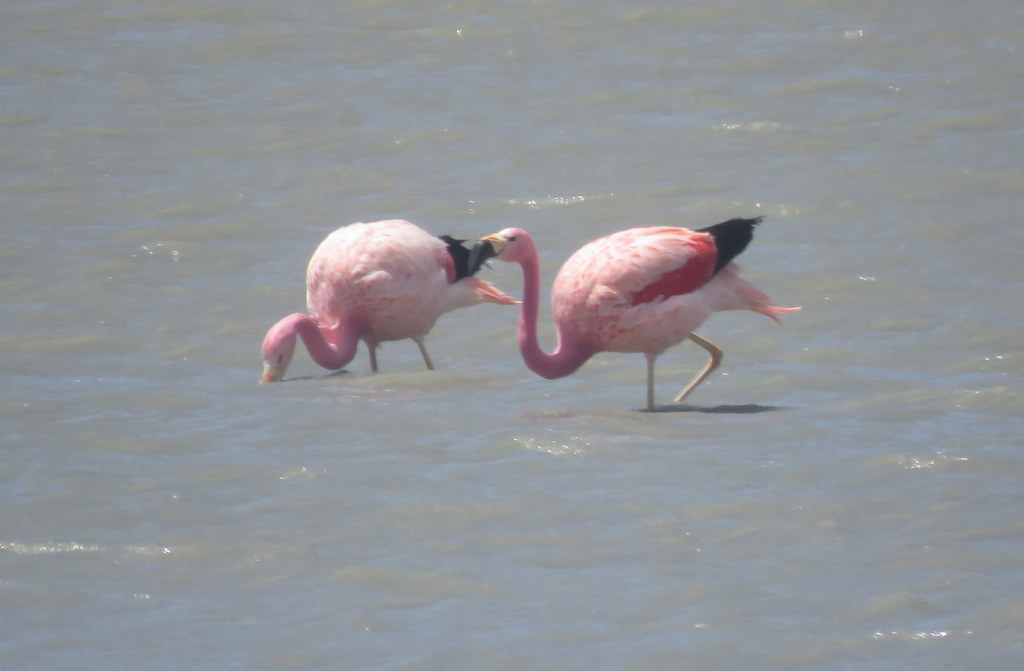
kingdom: Animalia
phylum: Chordata
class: Aves
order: Phoenicopteriformes
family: Phoenicopteridae
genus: Phoenicoparrus
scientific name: Phoenicoparrus andinus
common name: Andean flamingo
